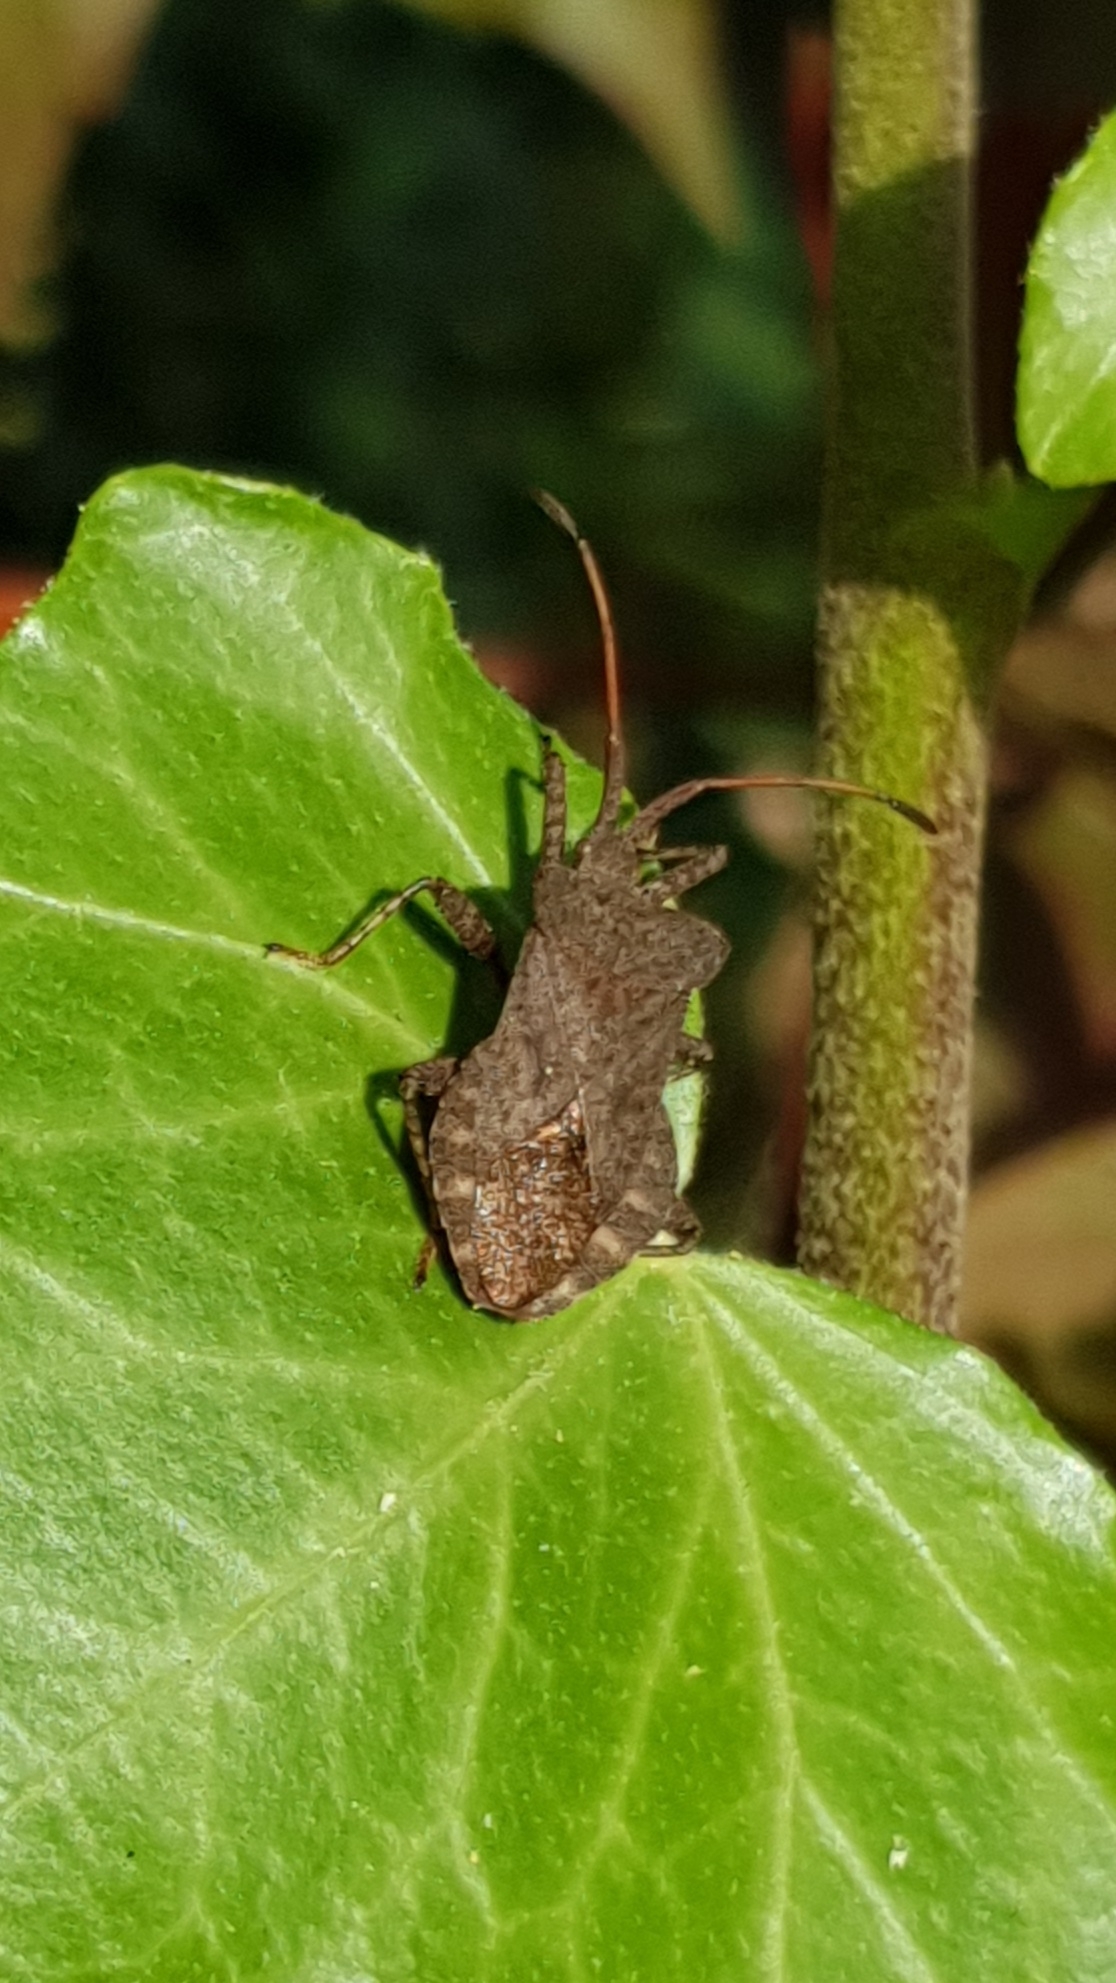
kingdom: Animalia
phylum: Arthropoda
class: Insecta
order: Hemiptera
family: Coreidae
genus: Coreus
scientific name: Coreus marginatus
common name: Dock bug
